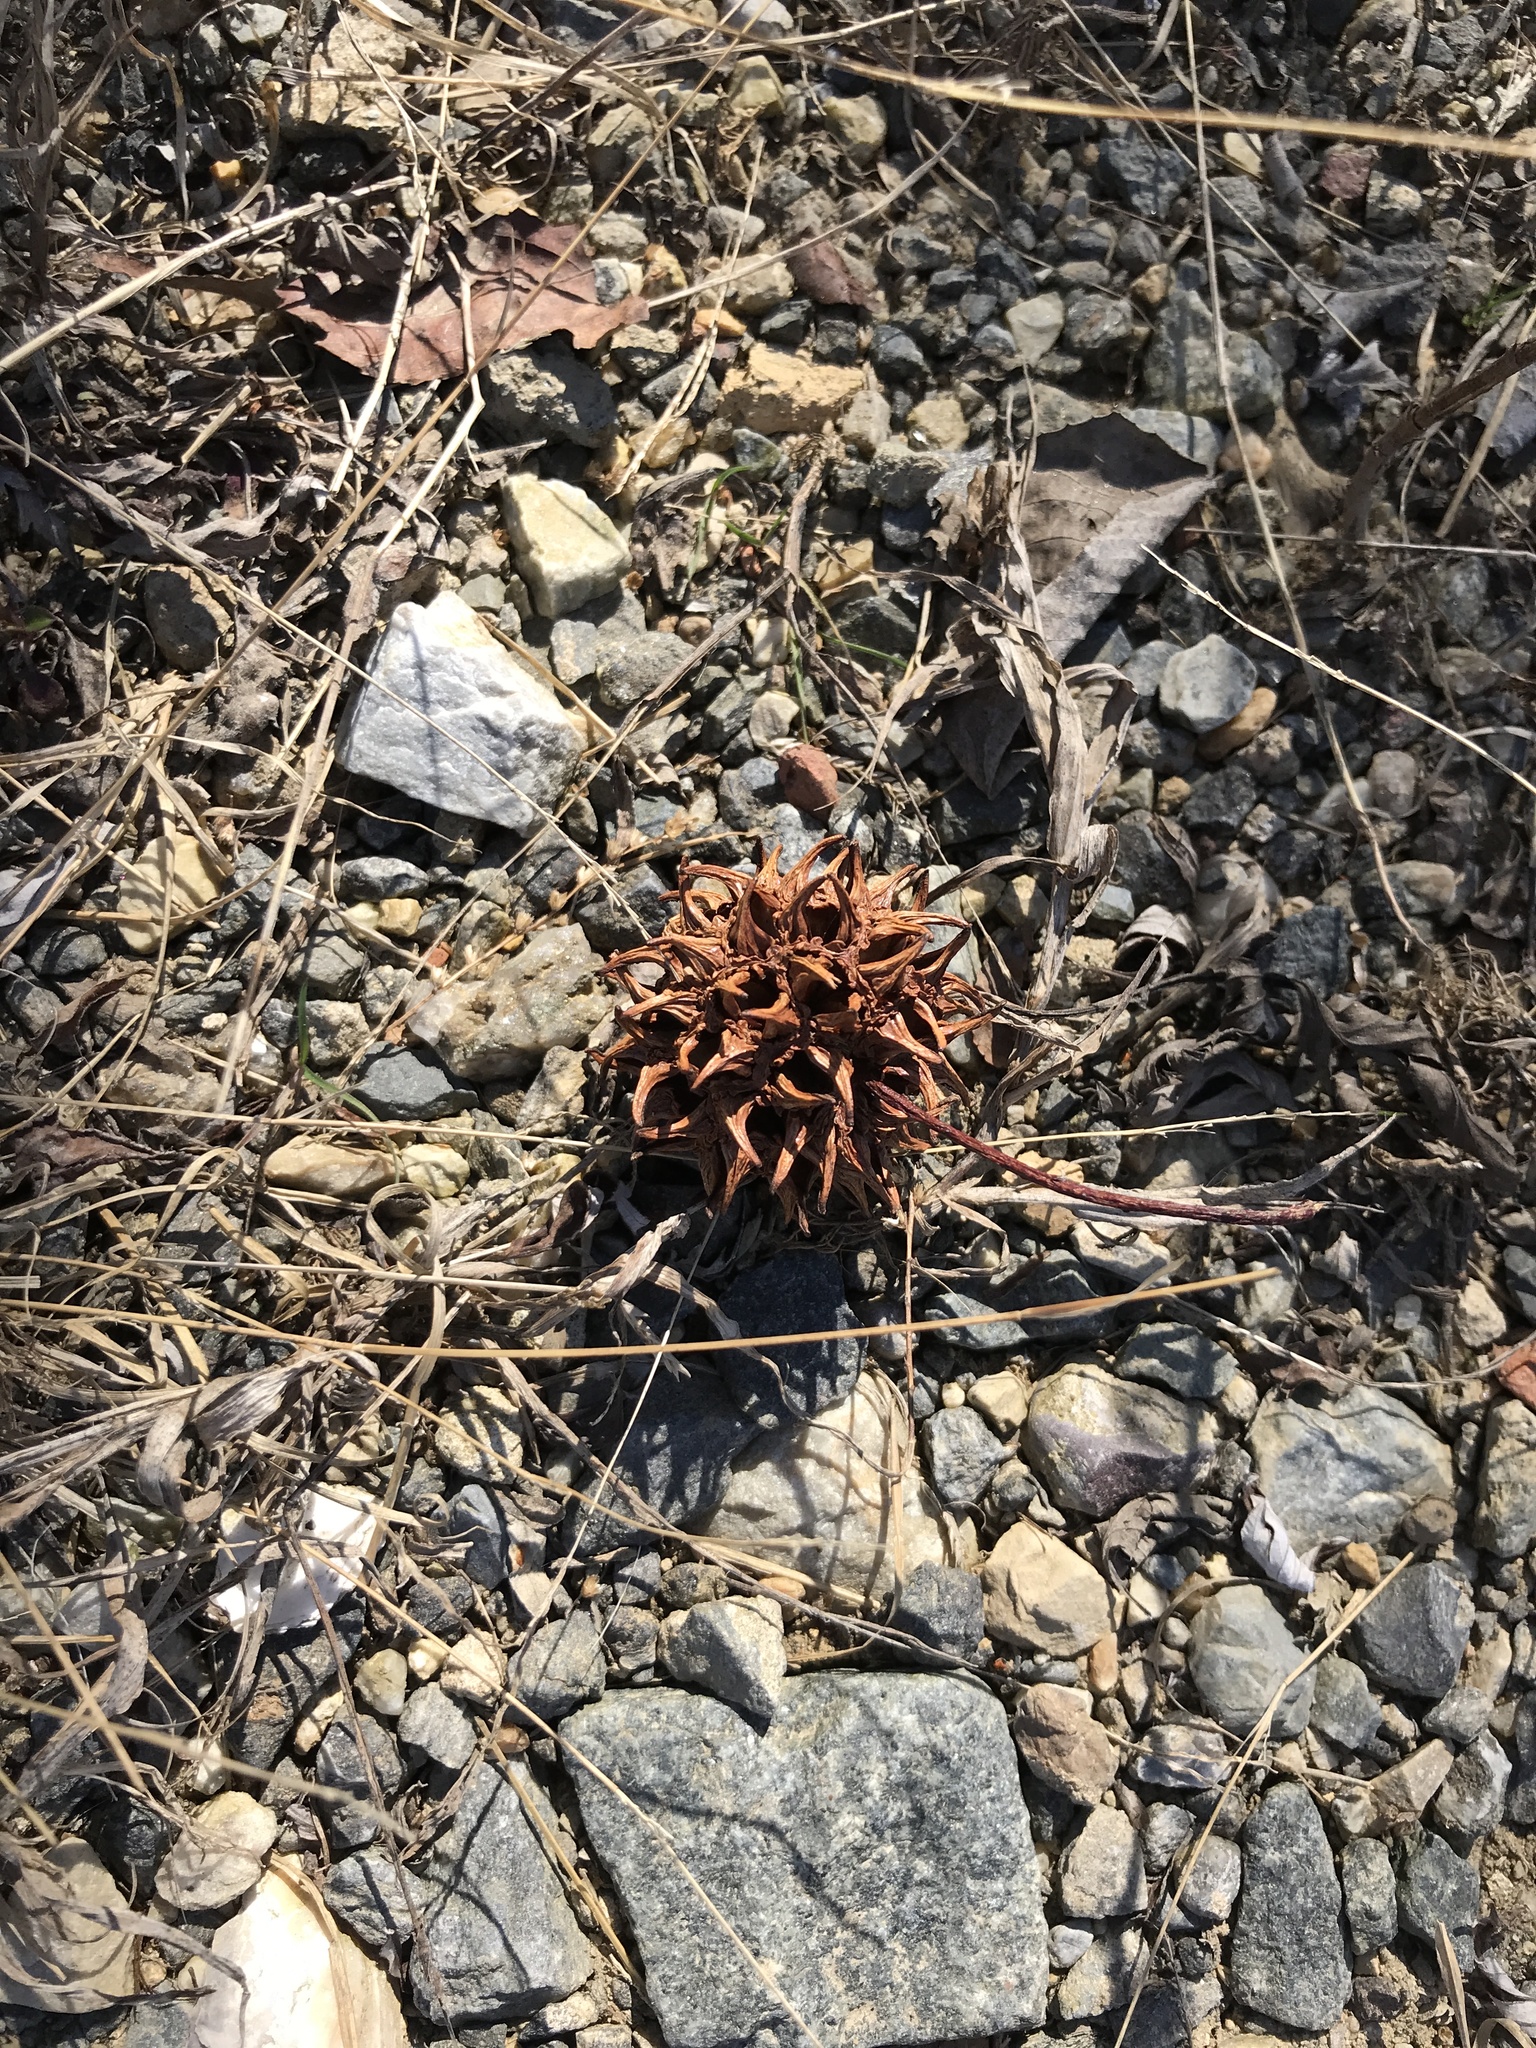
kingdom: Plantae
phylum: Tracheophyta
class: Magnoliopsida
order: Saxifragales
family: Altingiaceae
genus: Liquidambar
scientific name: Liquidambar styraciflua
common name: Sweet gum
